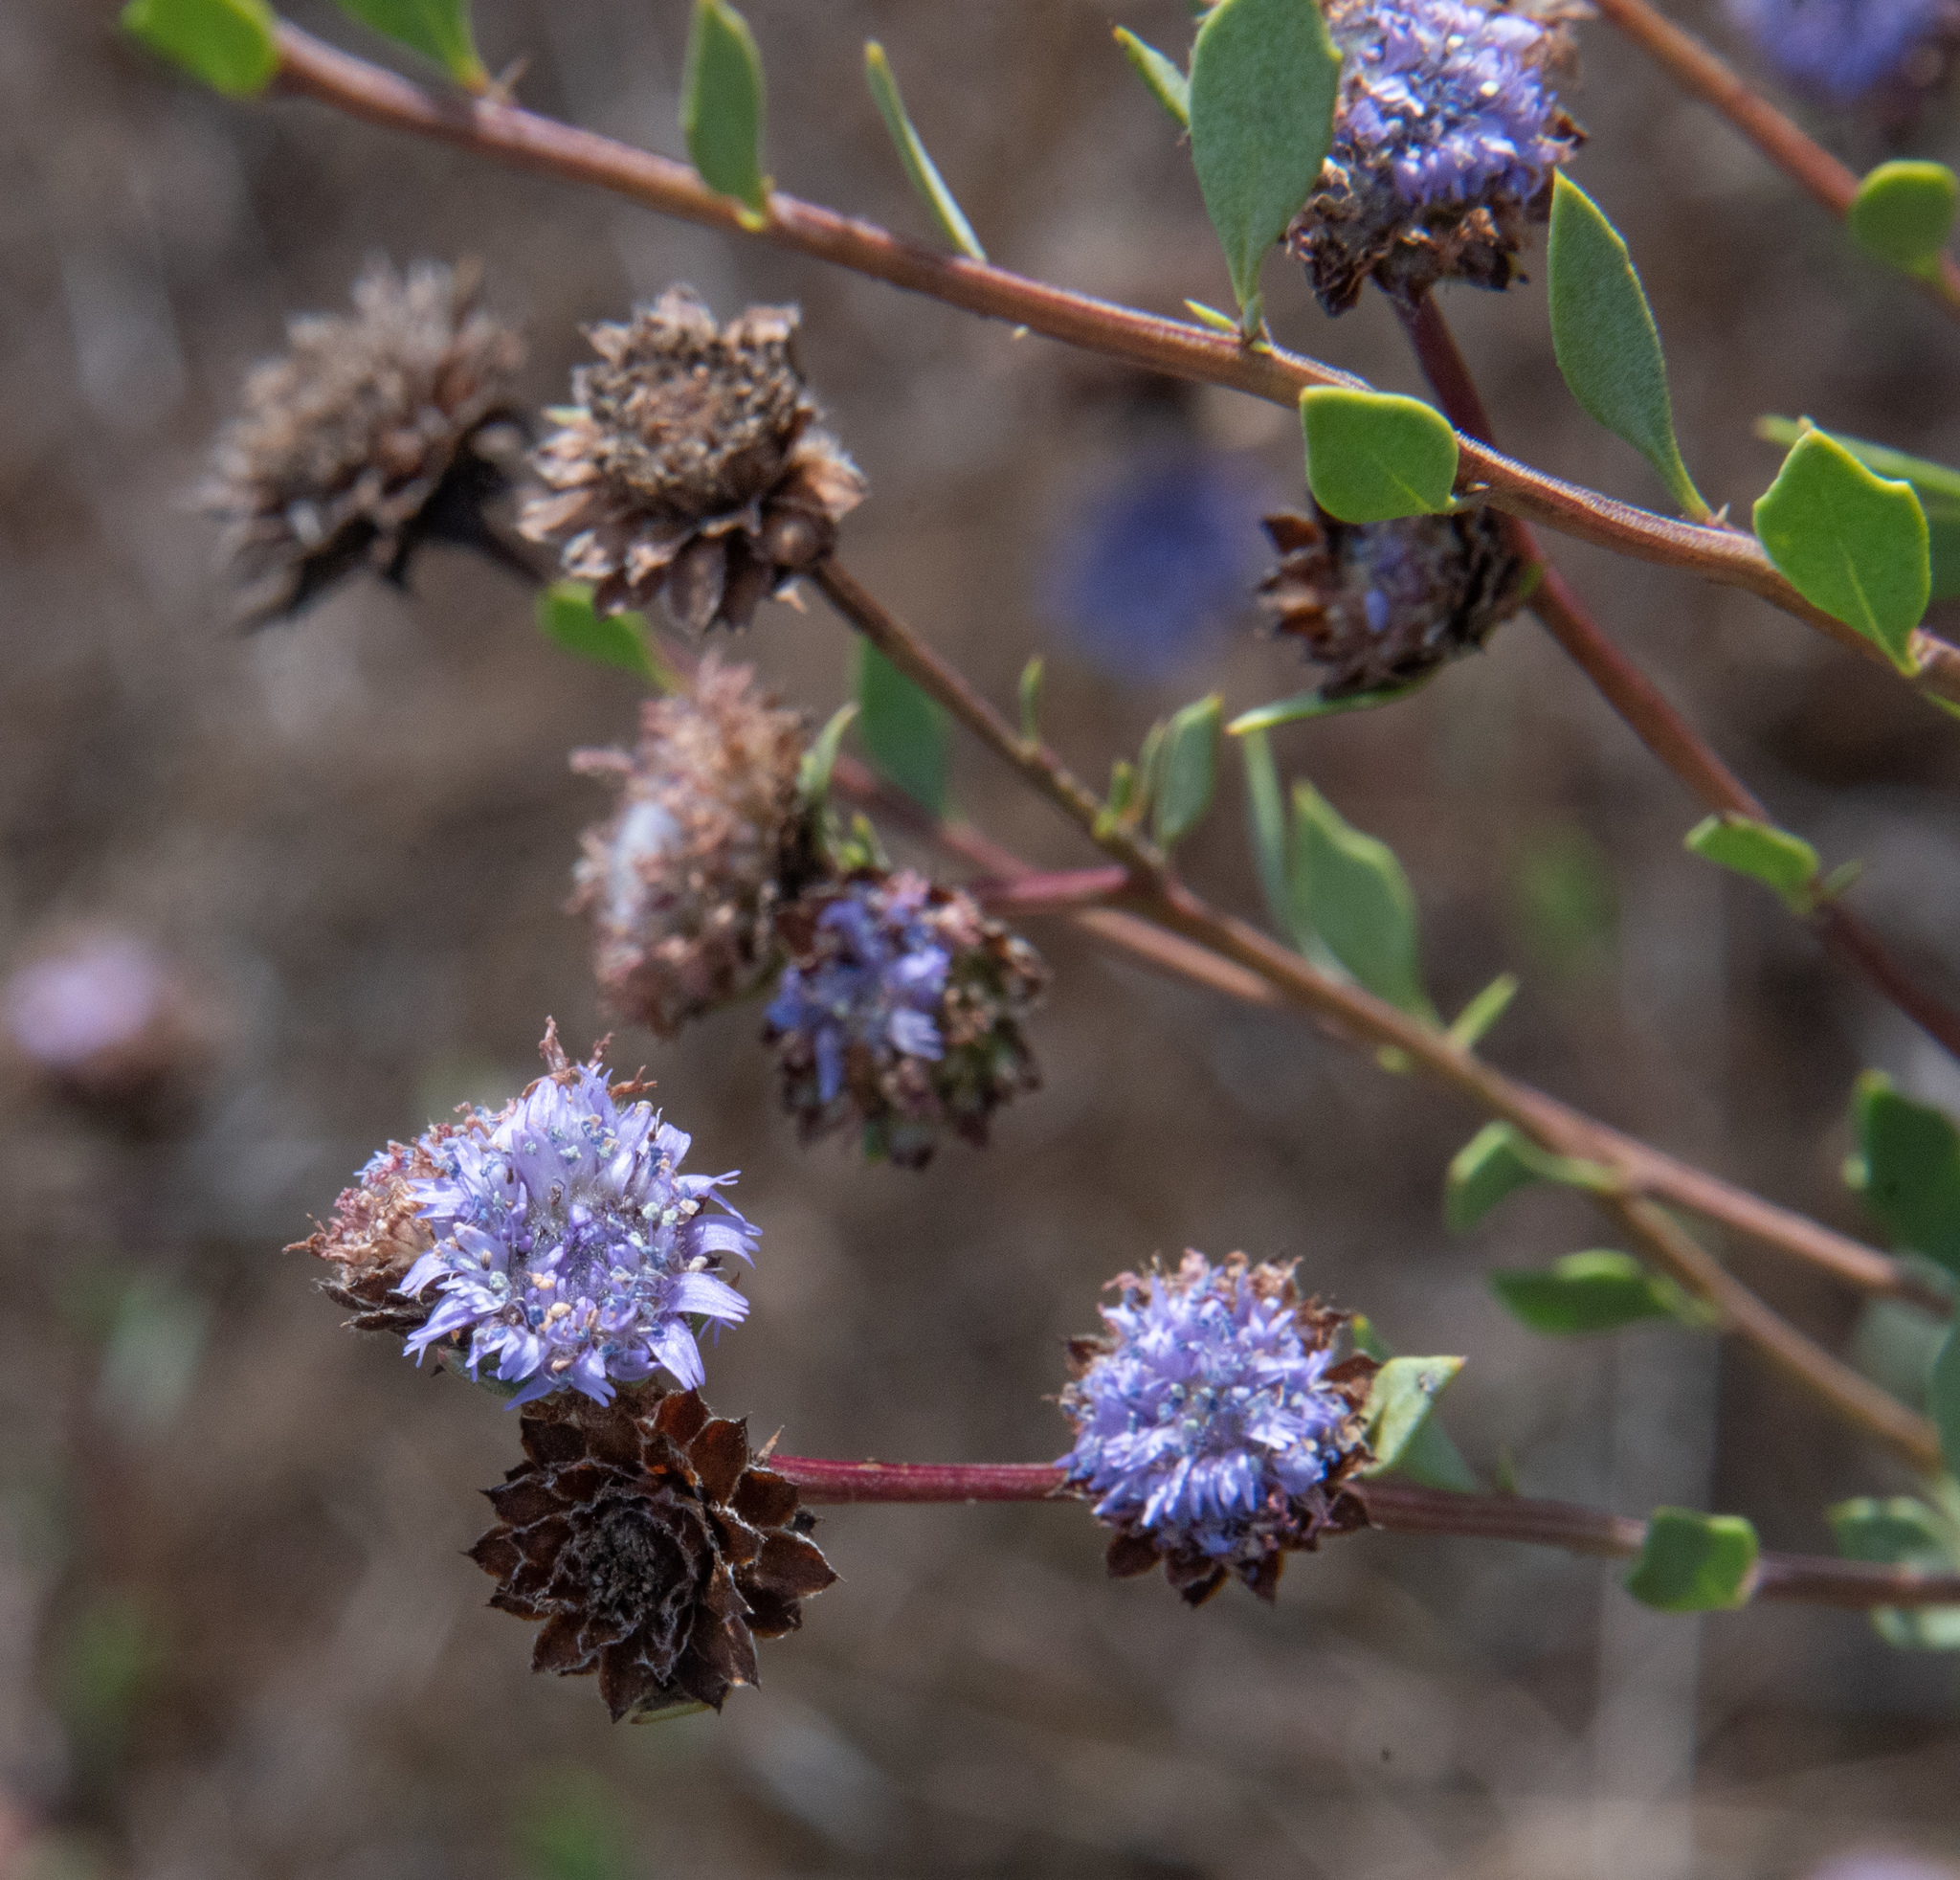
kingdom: Plantae
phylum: Tracheophyta
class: Magnoliopsida
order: Lamiales
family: Plantaginaceae
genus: Globularia
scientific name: Globularia alypum
